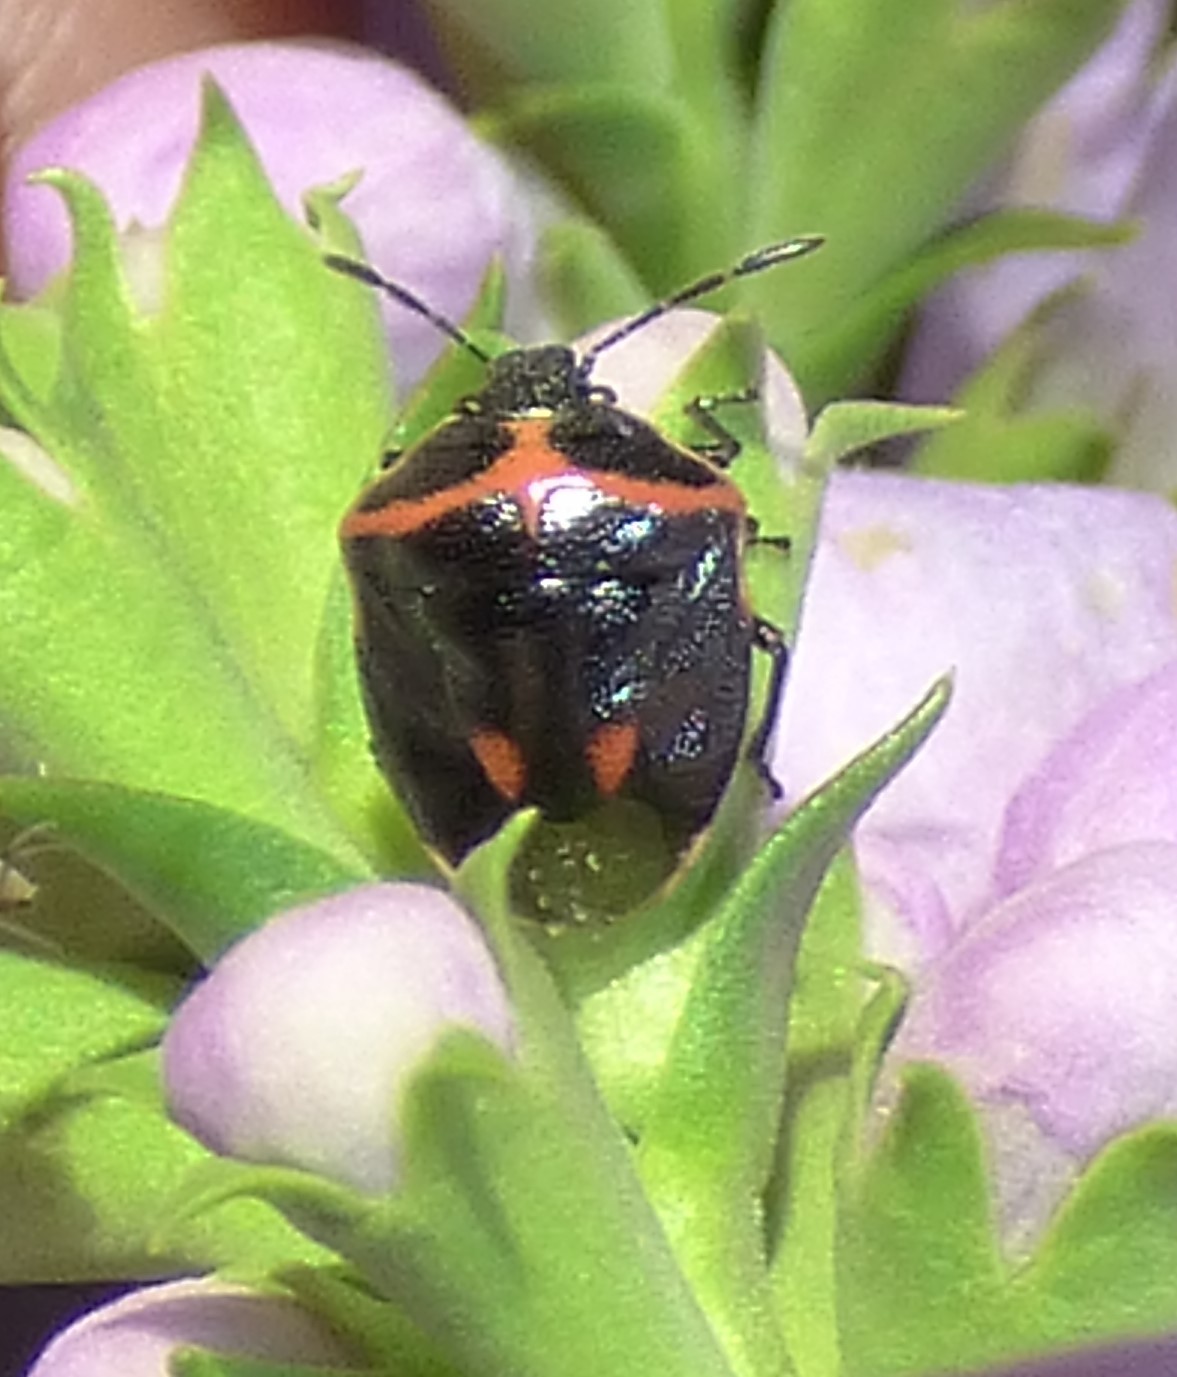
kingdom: Animalia
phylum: Arthropoda
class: Insecta
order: Hemiptera
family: Pentatomidae
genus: Cosmopepla
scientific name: Cosmopepla lintneriana
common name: Twice-stabbed stink bug
